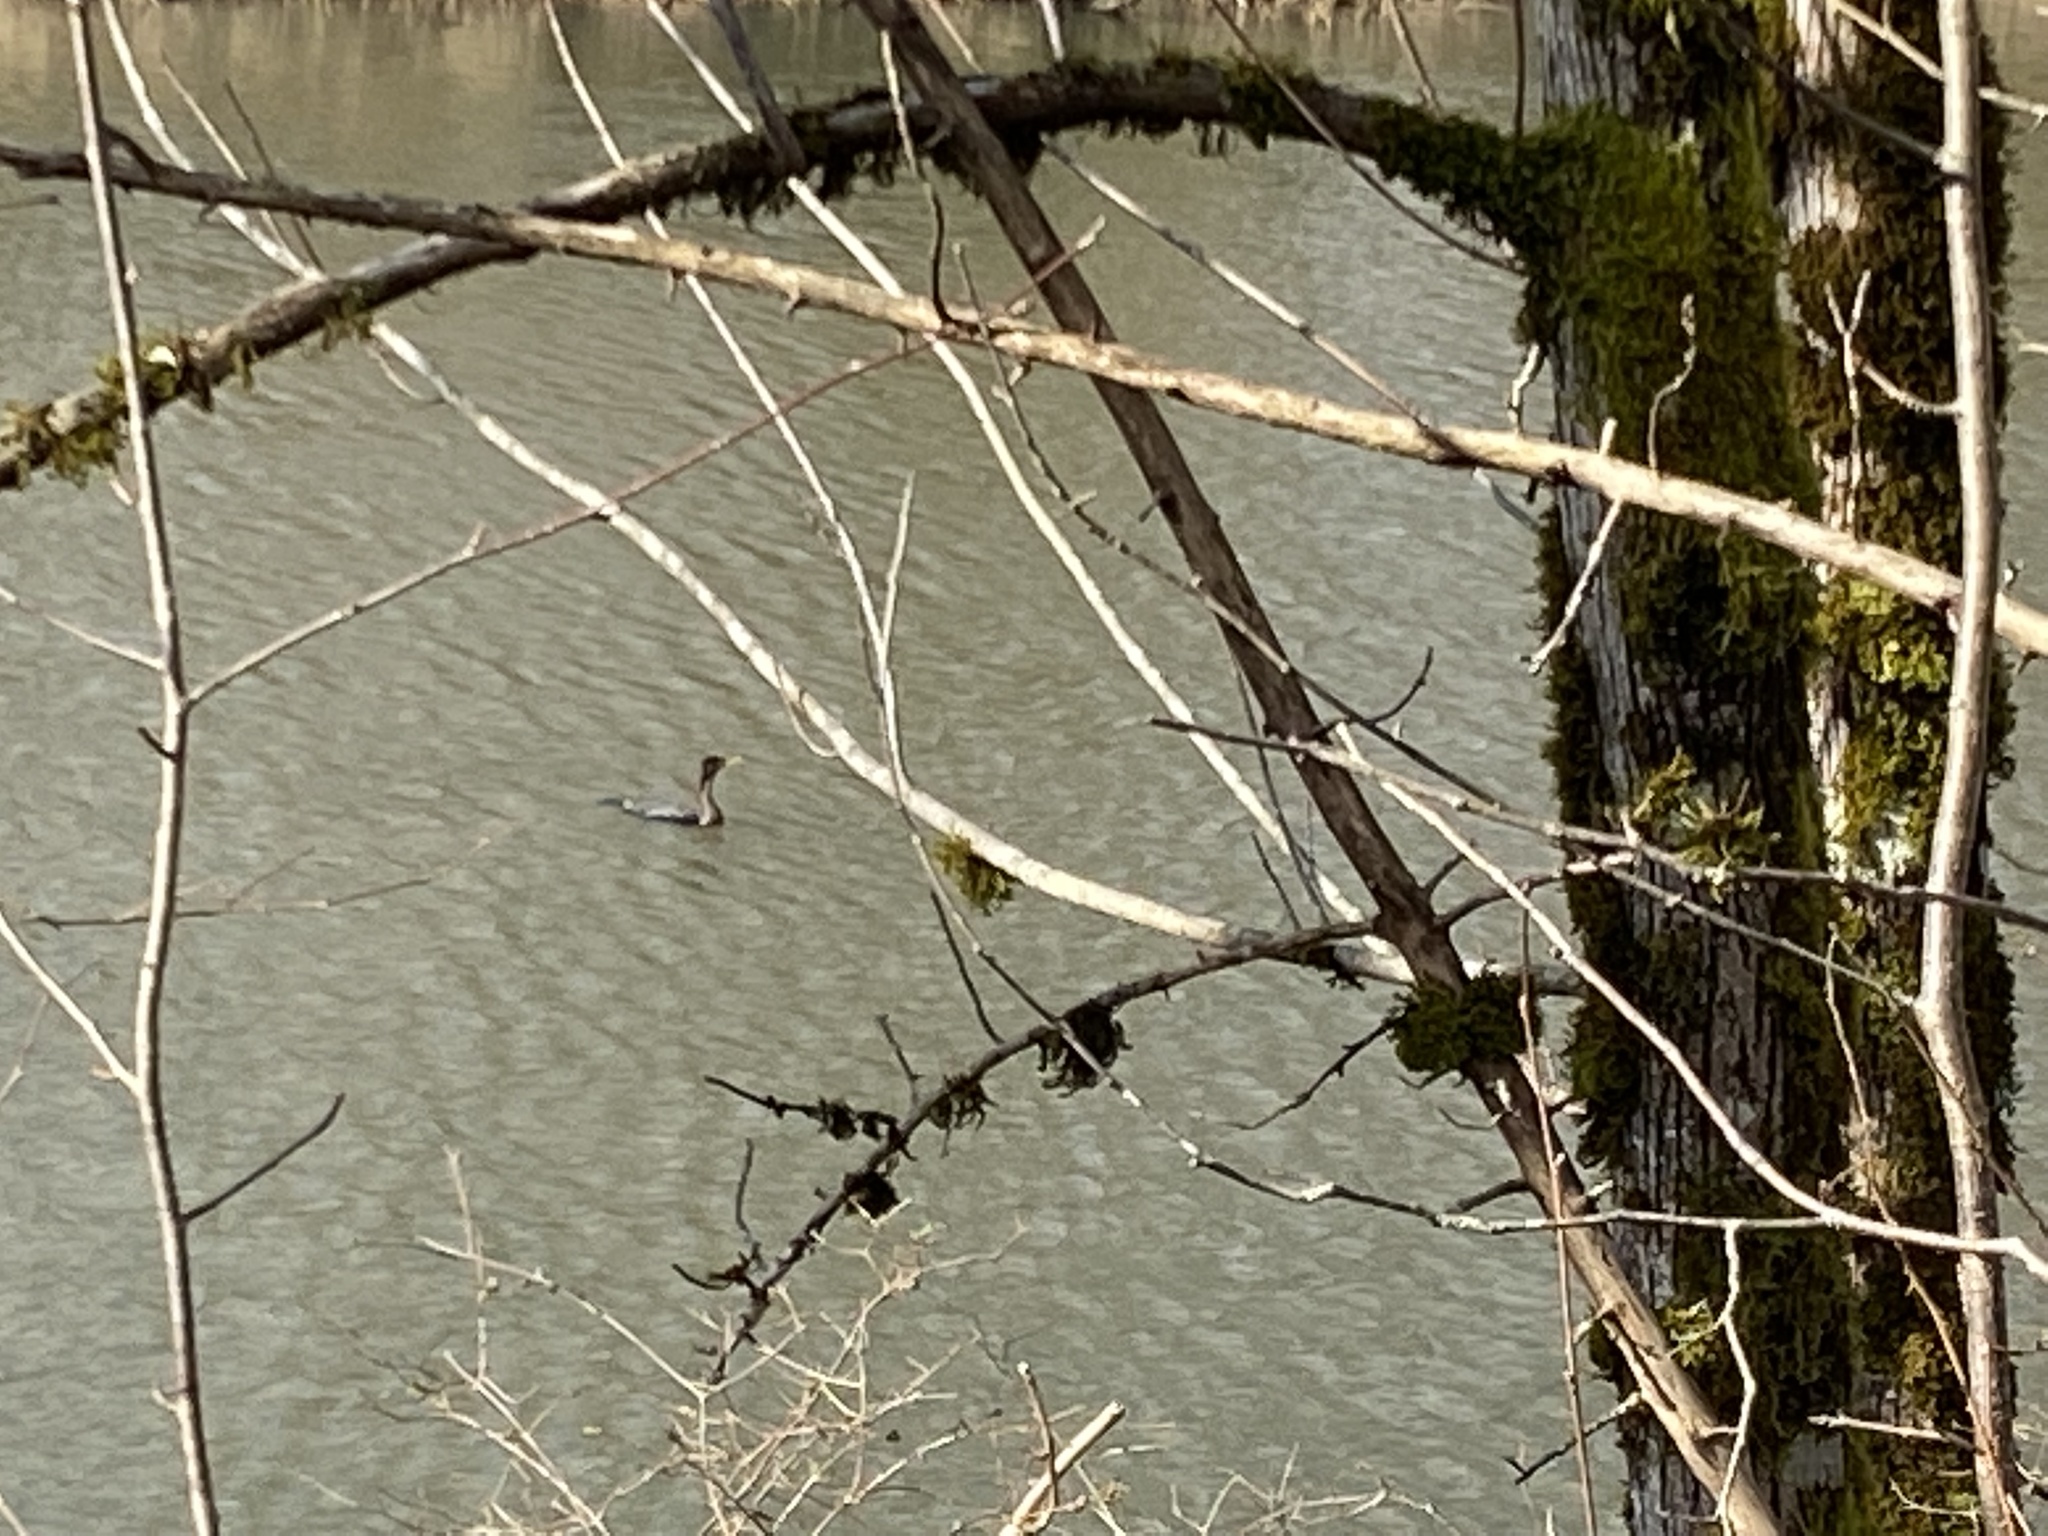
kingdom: Animalia
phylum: Chordata
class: Aves
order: Suliformes
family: Phalacrocoracidae
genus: Phalacrocorax
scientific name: Phalacrocorax auritus
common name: Double-crested cormorant
